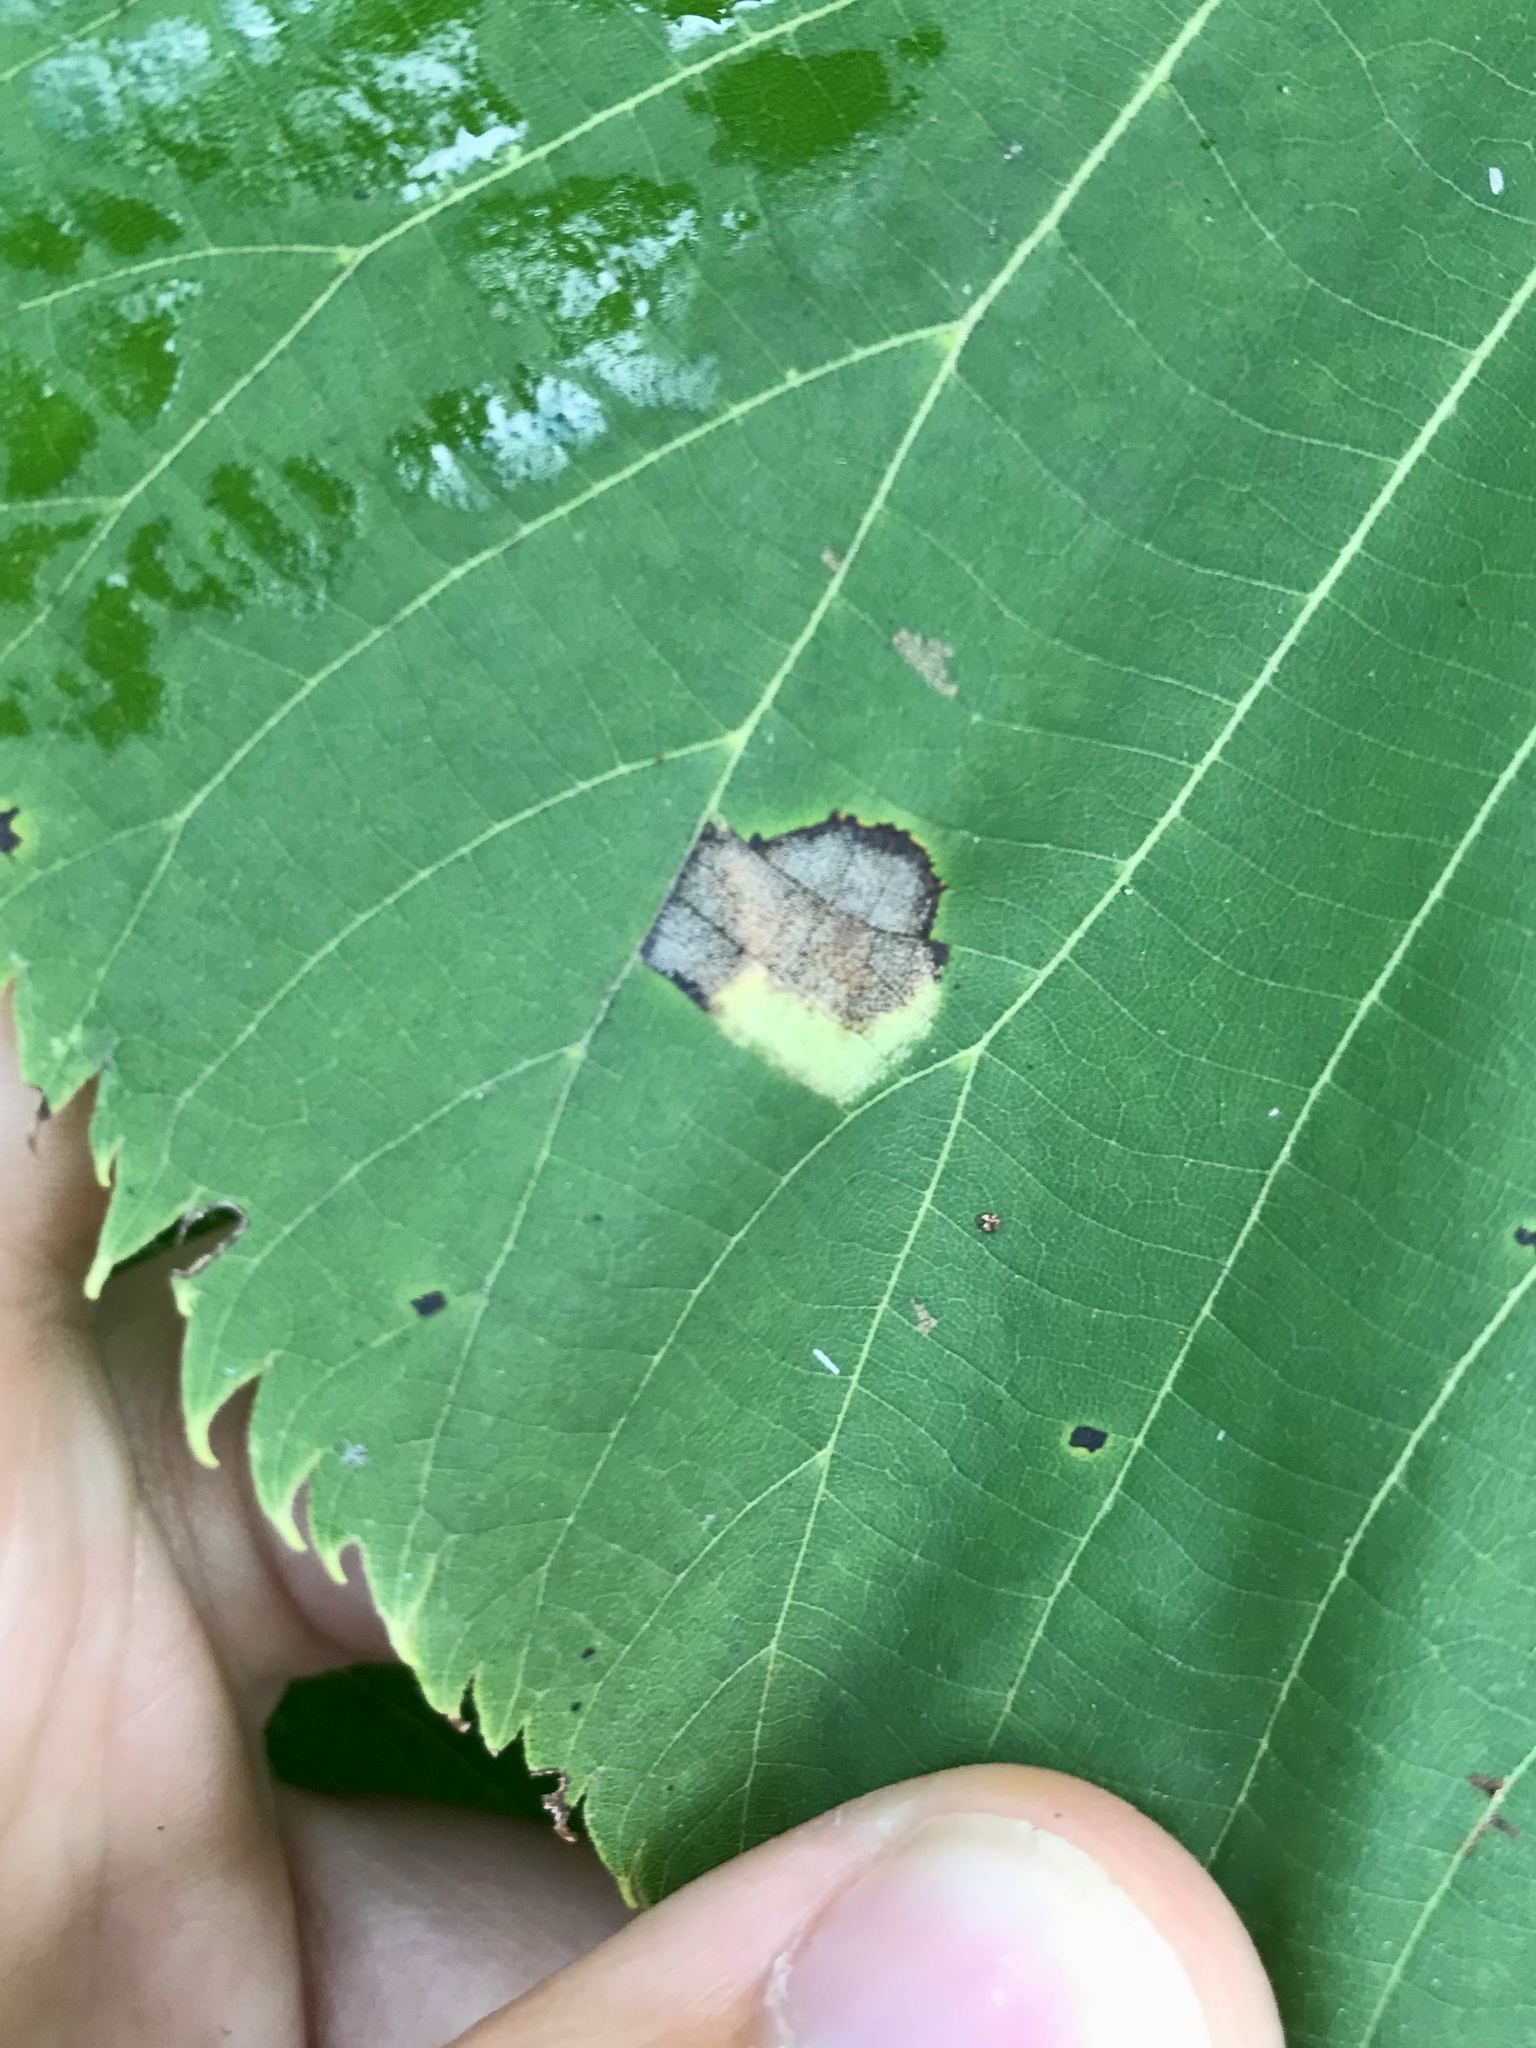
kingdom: Animalia
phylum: Arthropoda
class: Insecta
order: Lepidoptera
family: Gracillariidae
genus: Phyllonorycter
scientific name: Phyllonorycter lucetiella
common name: Basswood miner moth
